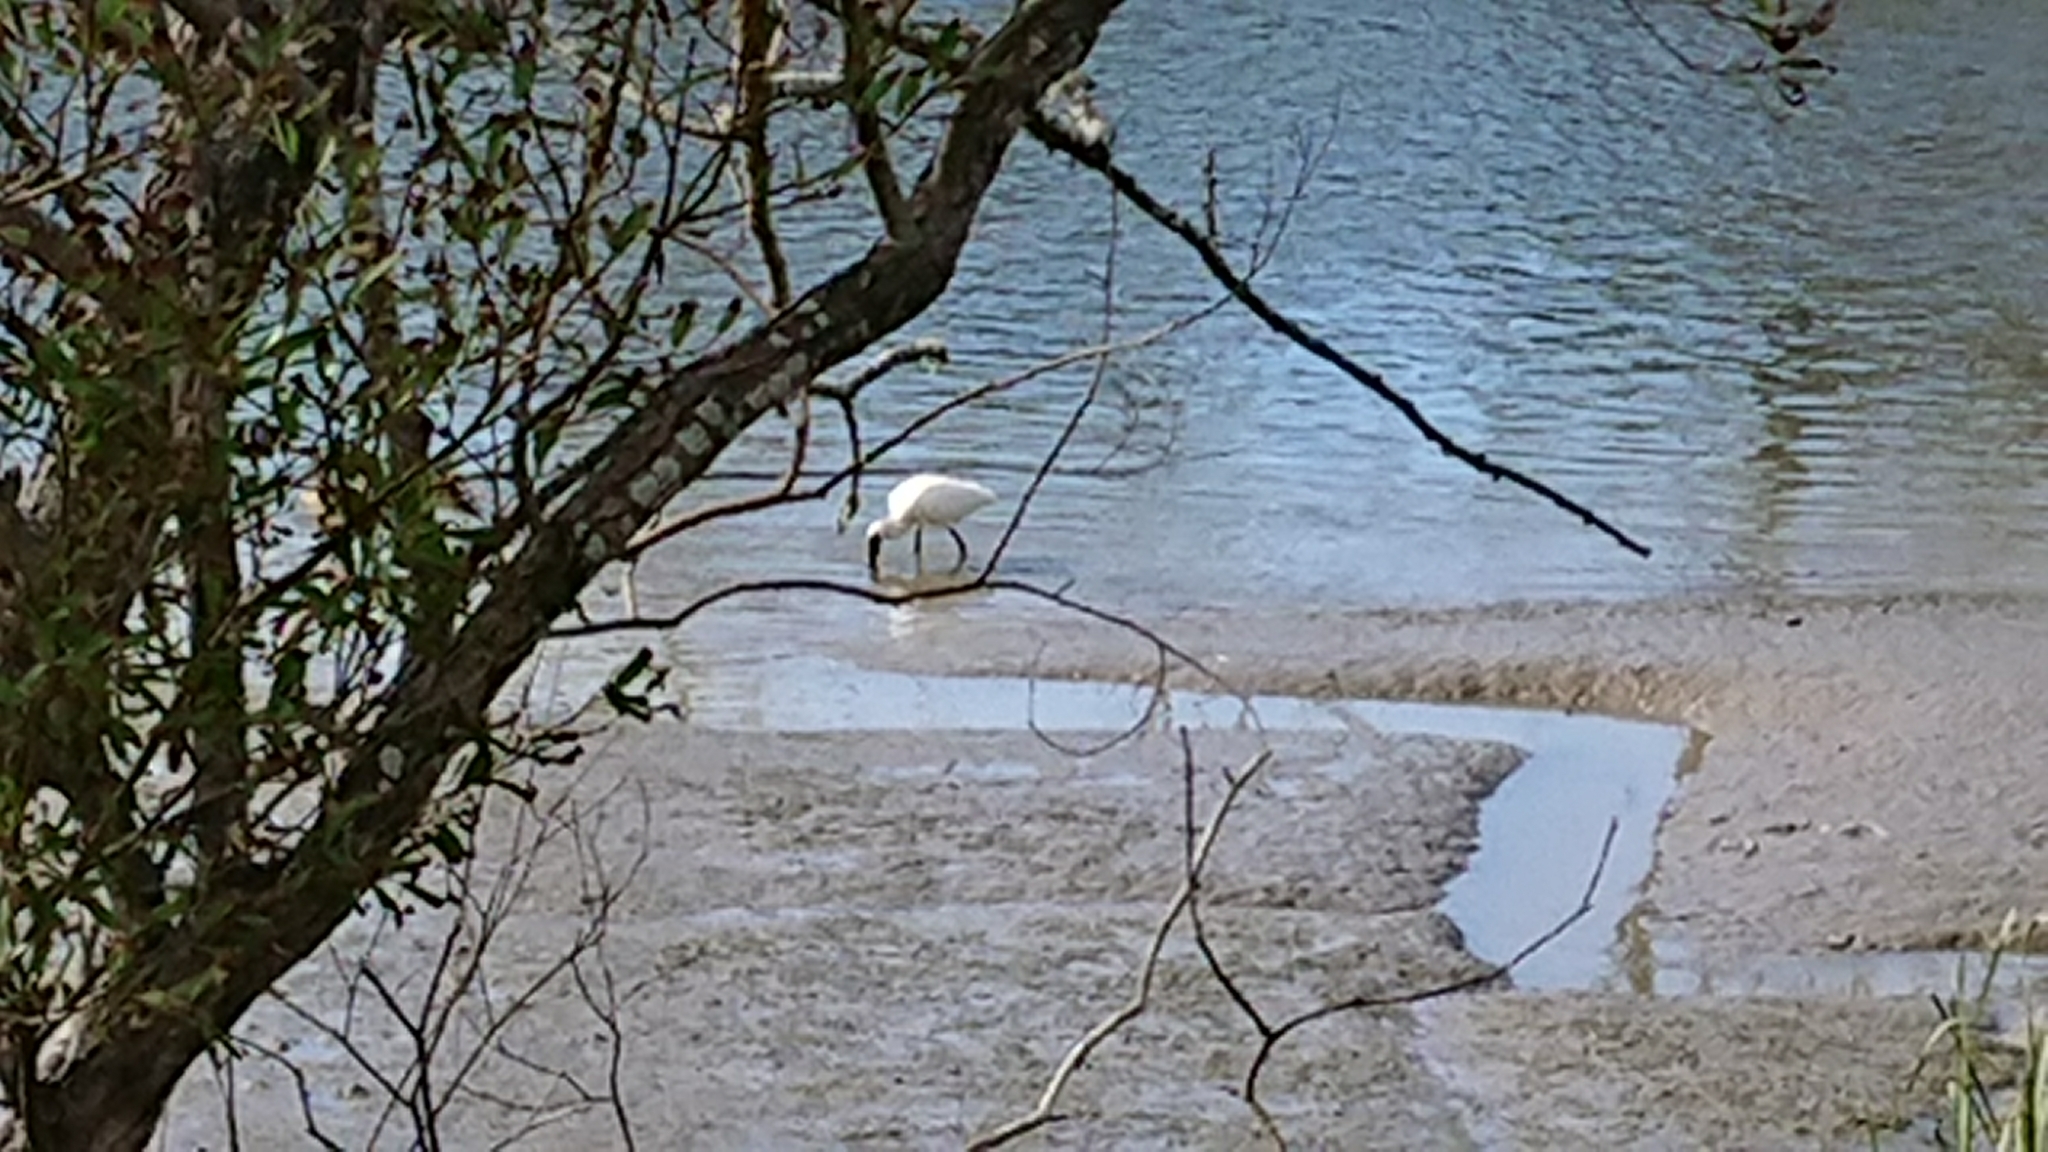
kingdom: Animalia
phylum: Chordata
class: Aves
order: Pelecaniformes
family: Threskiornithidae
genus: Platalea
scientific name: Platalea regia
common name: Royal spoonbill
